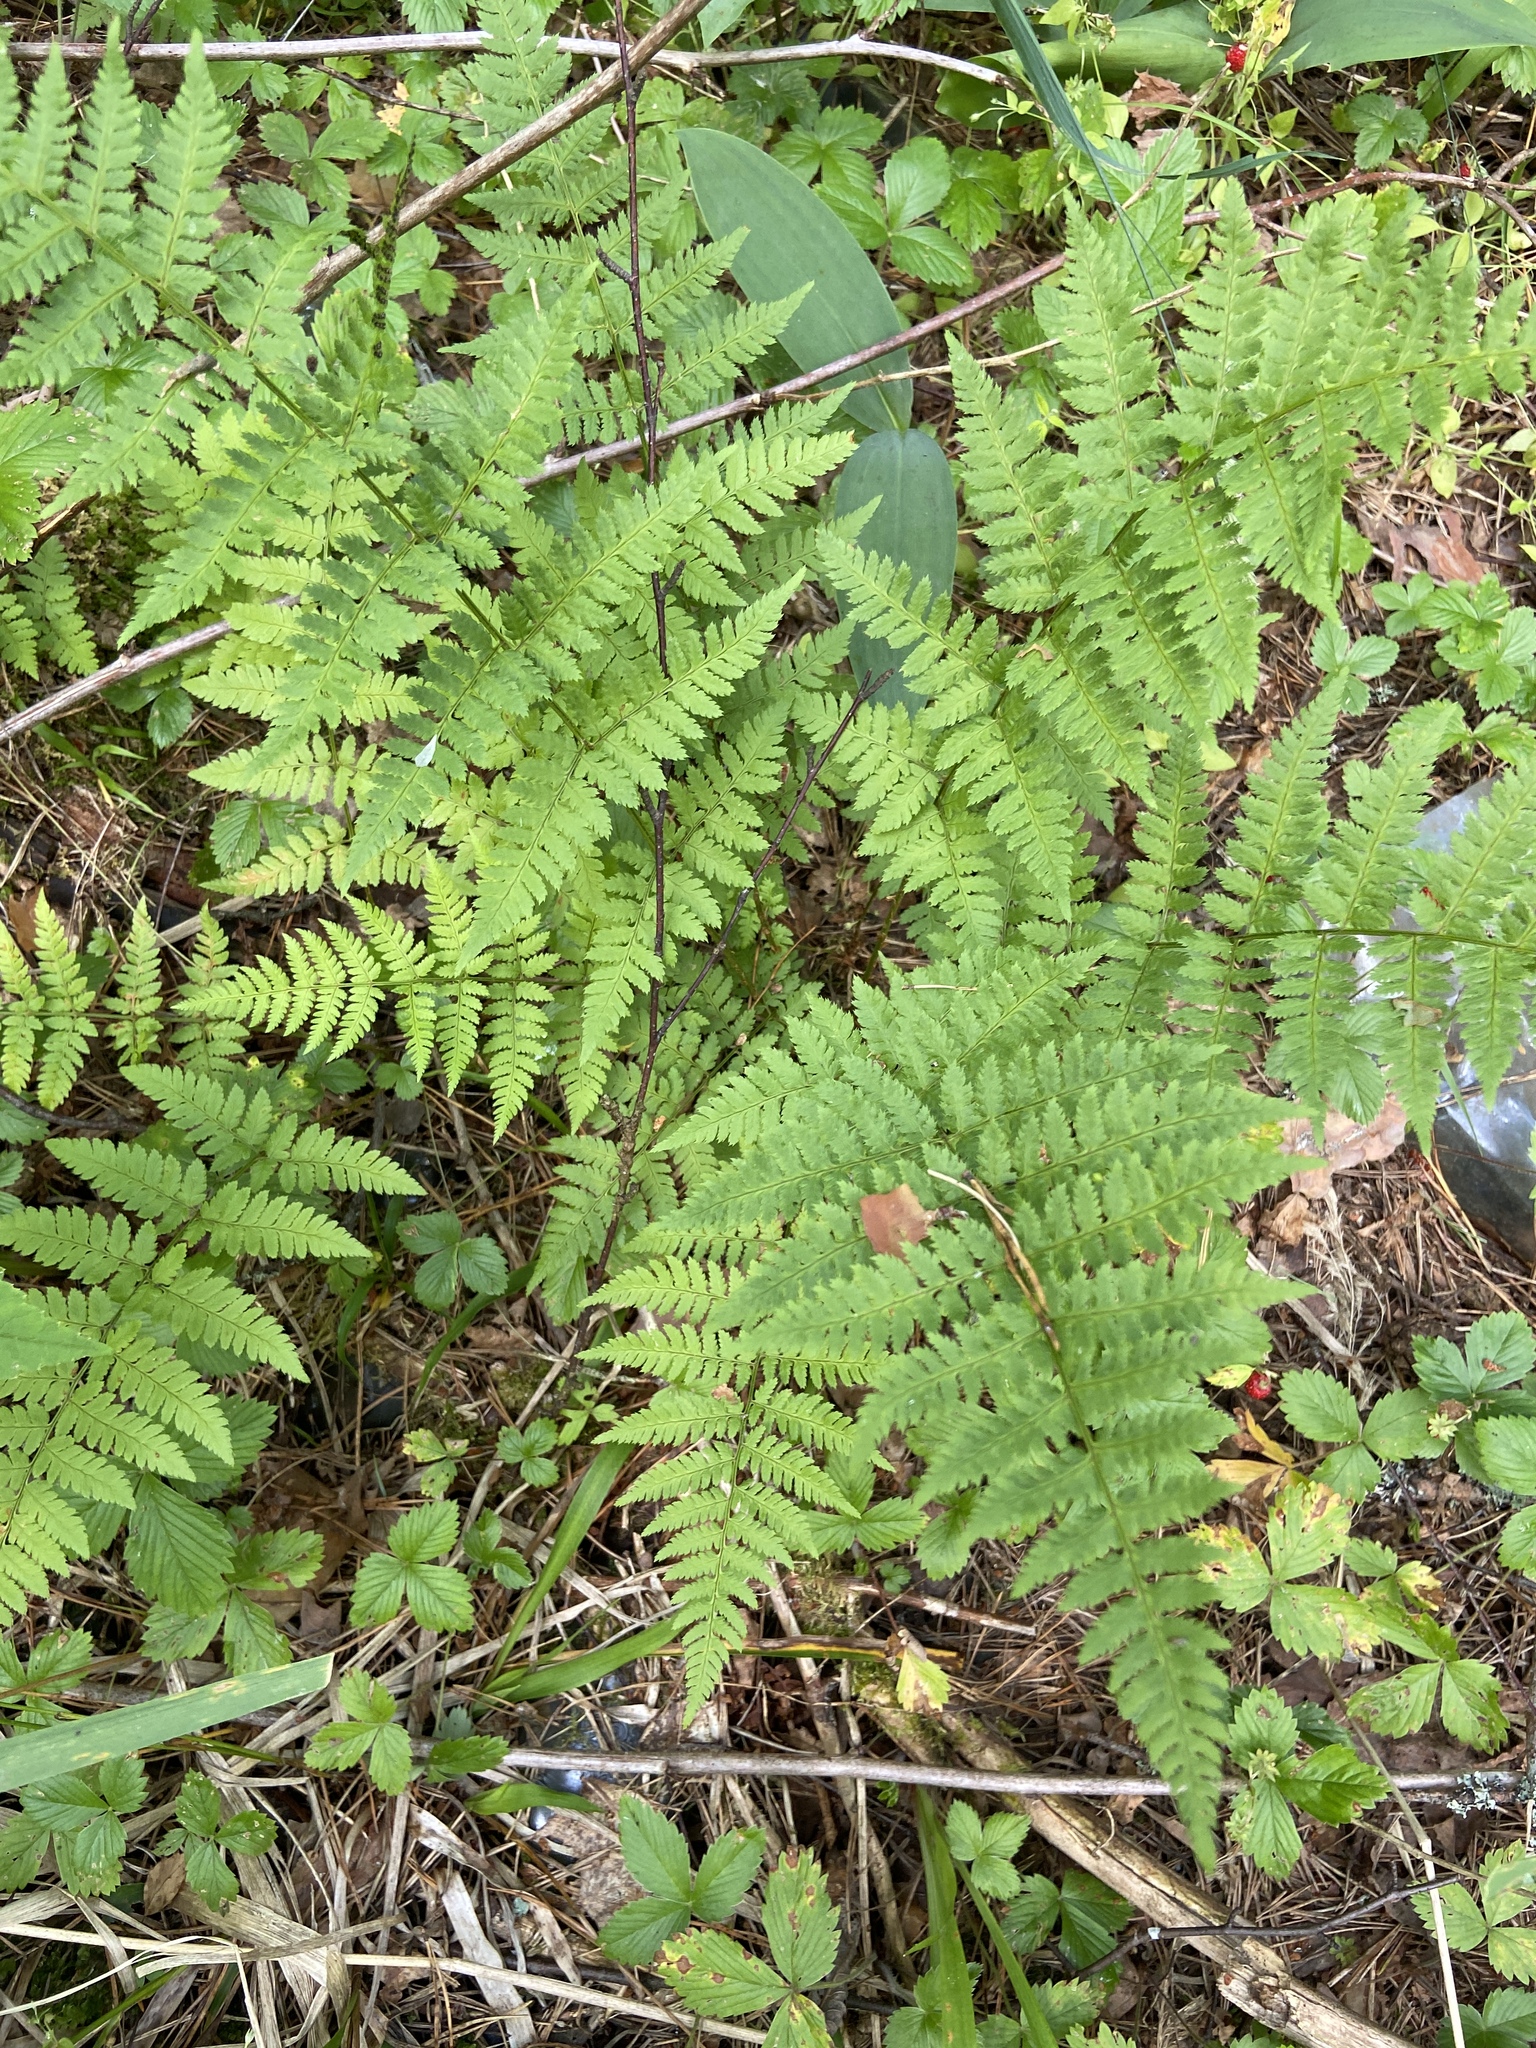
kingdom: Plantae
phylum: Tracheophyta
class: Polypodiopsida
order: Polypodiales
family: Dryopteridaceae
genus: Dryopteris
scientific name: Dryopteris carthusiana
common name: Narrow buckler-fern
